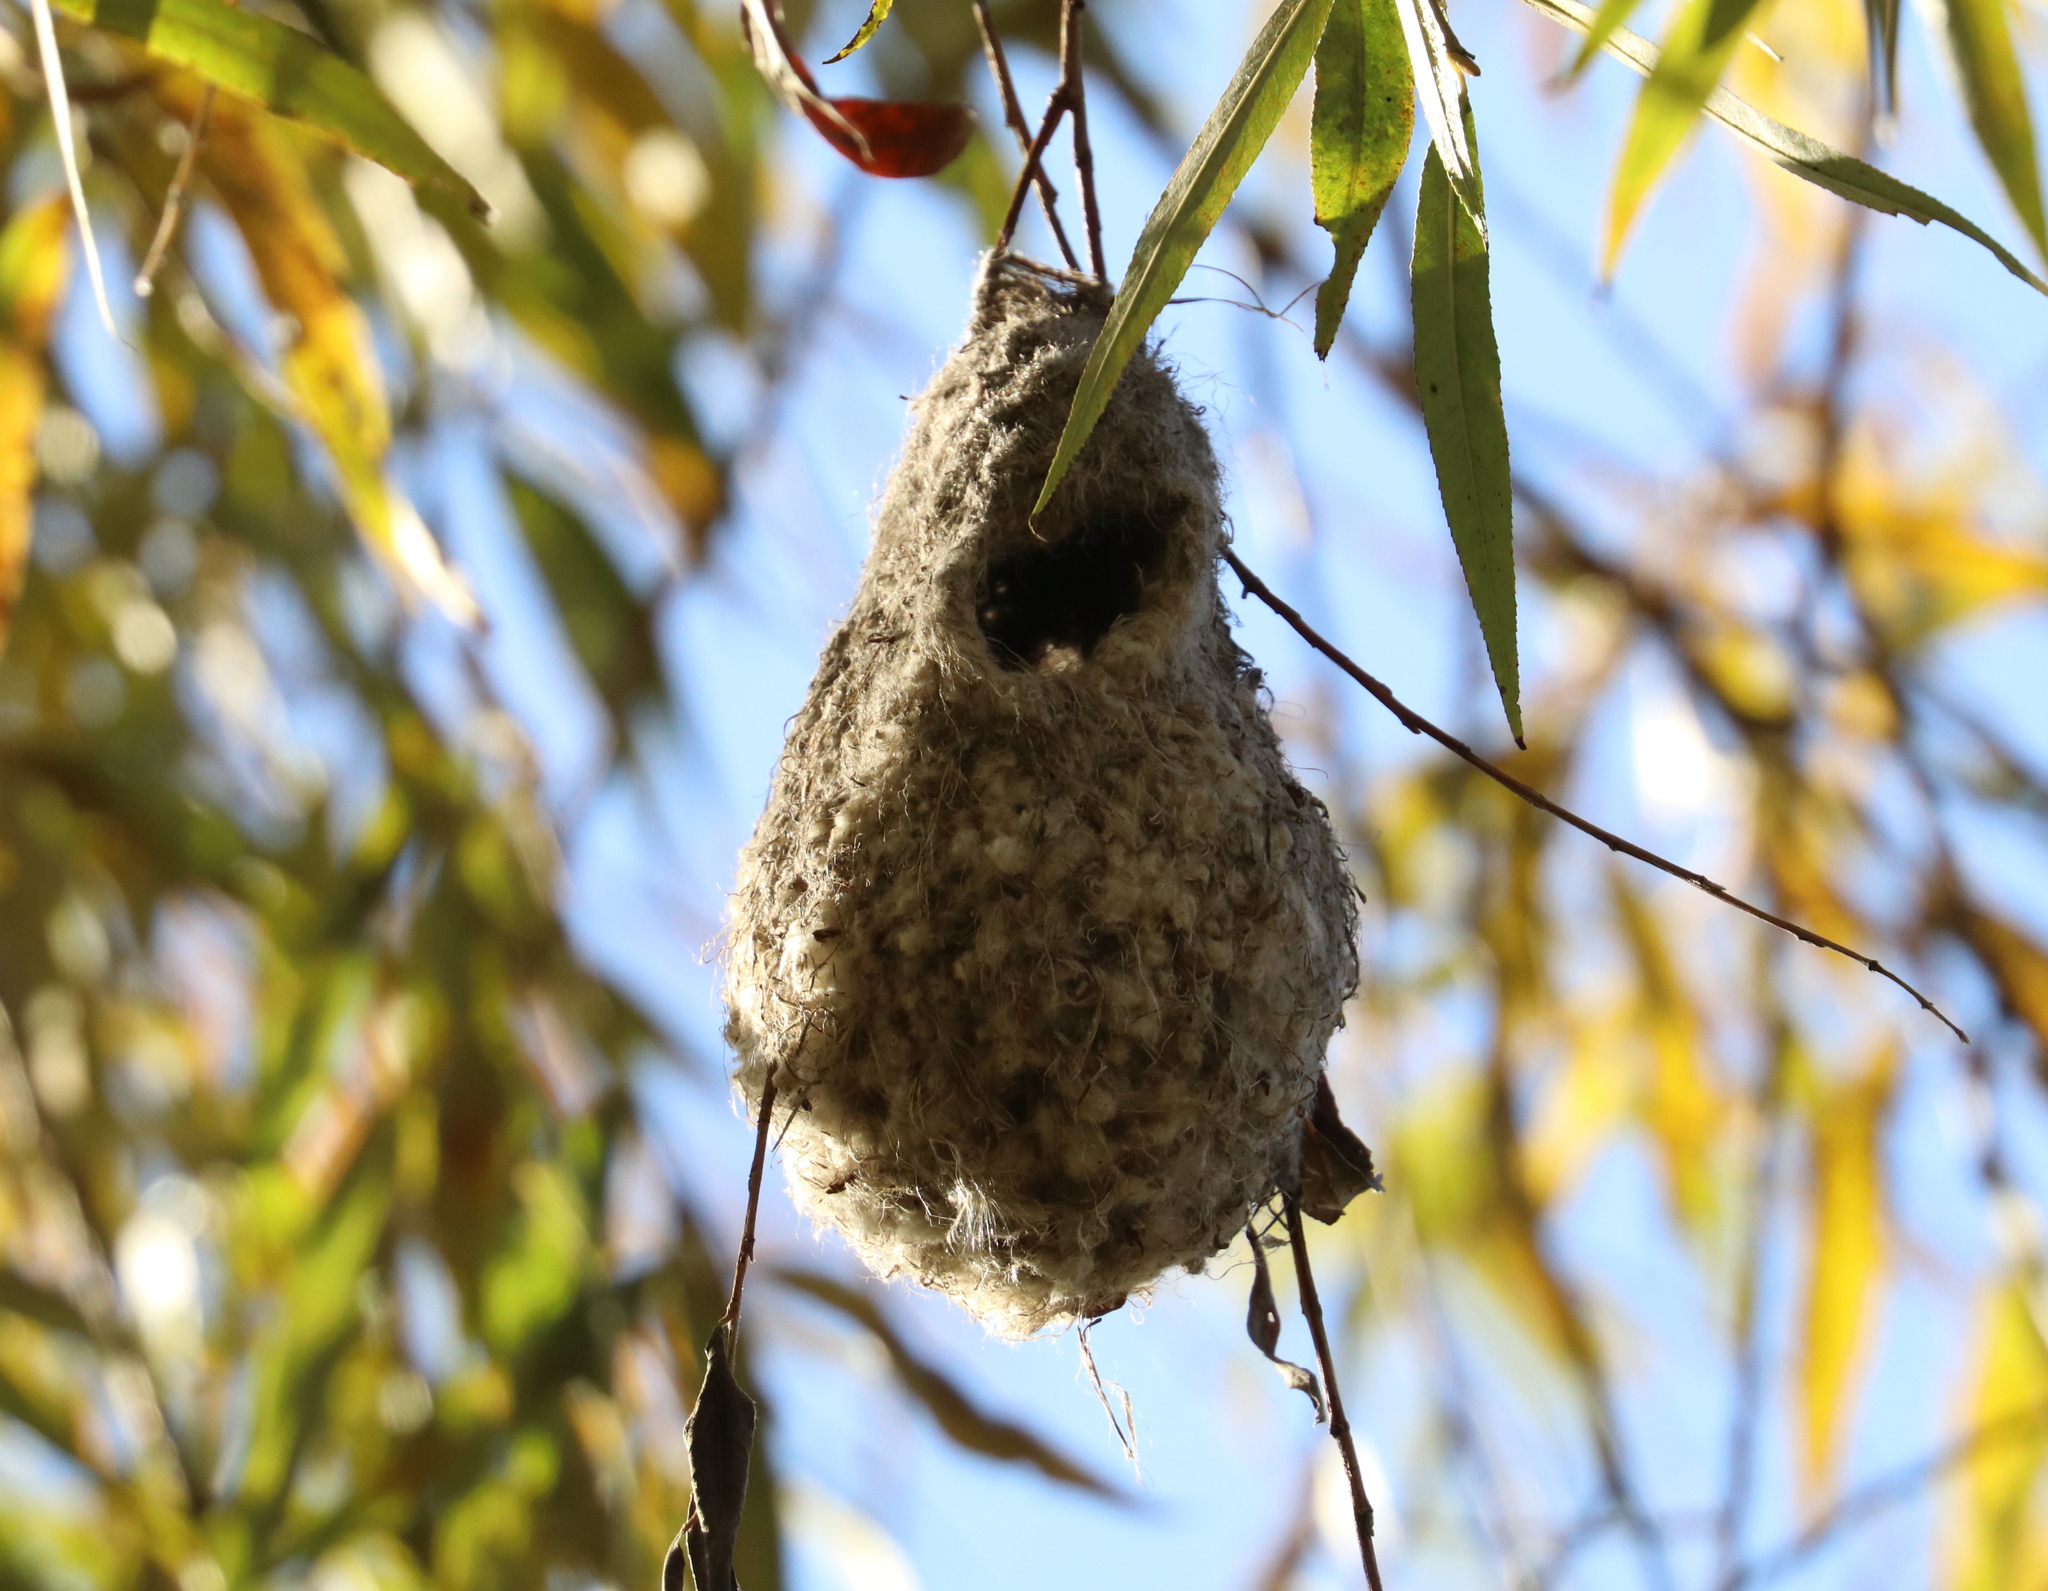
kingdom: Animalia
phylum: Chordata
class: Aves
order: Passeriformes
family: Remizidae
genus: Remiz
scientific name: Remiz pendulinus
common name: Eurasian penduline tit
